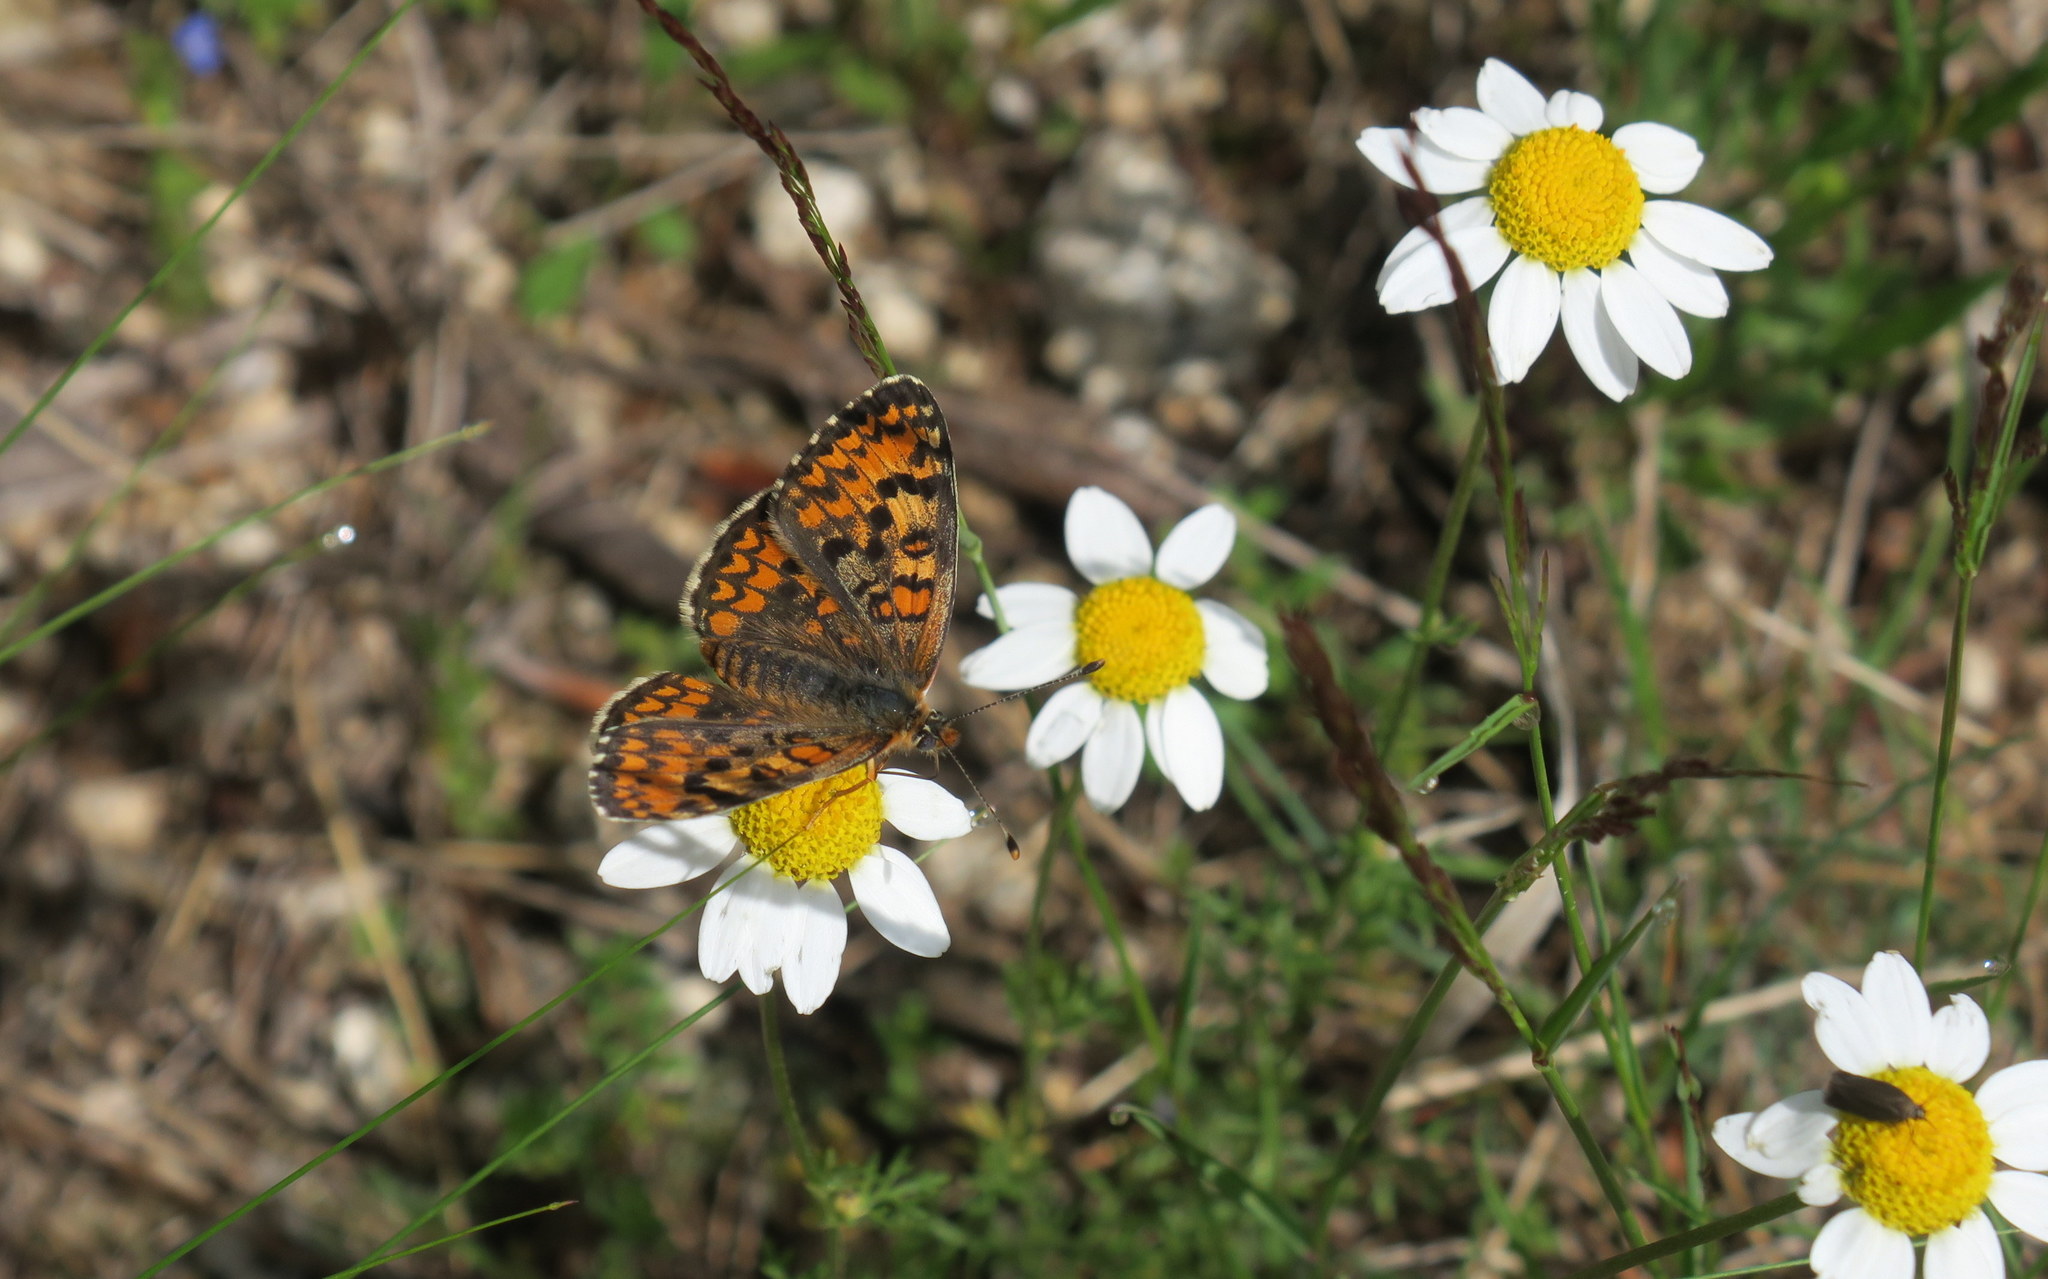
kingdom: Animalia
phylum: Arthropoda
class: Insecta
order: Lepidoptera
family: Nymphalidae
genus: Melitaea
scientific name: Melitaea trivia
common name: Lesser spotted fritillary
